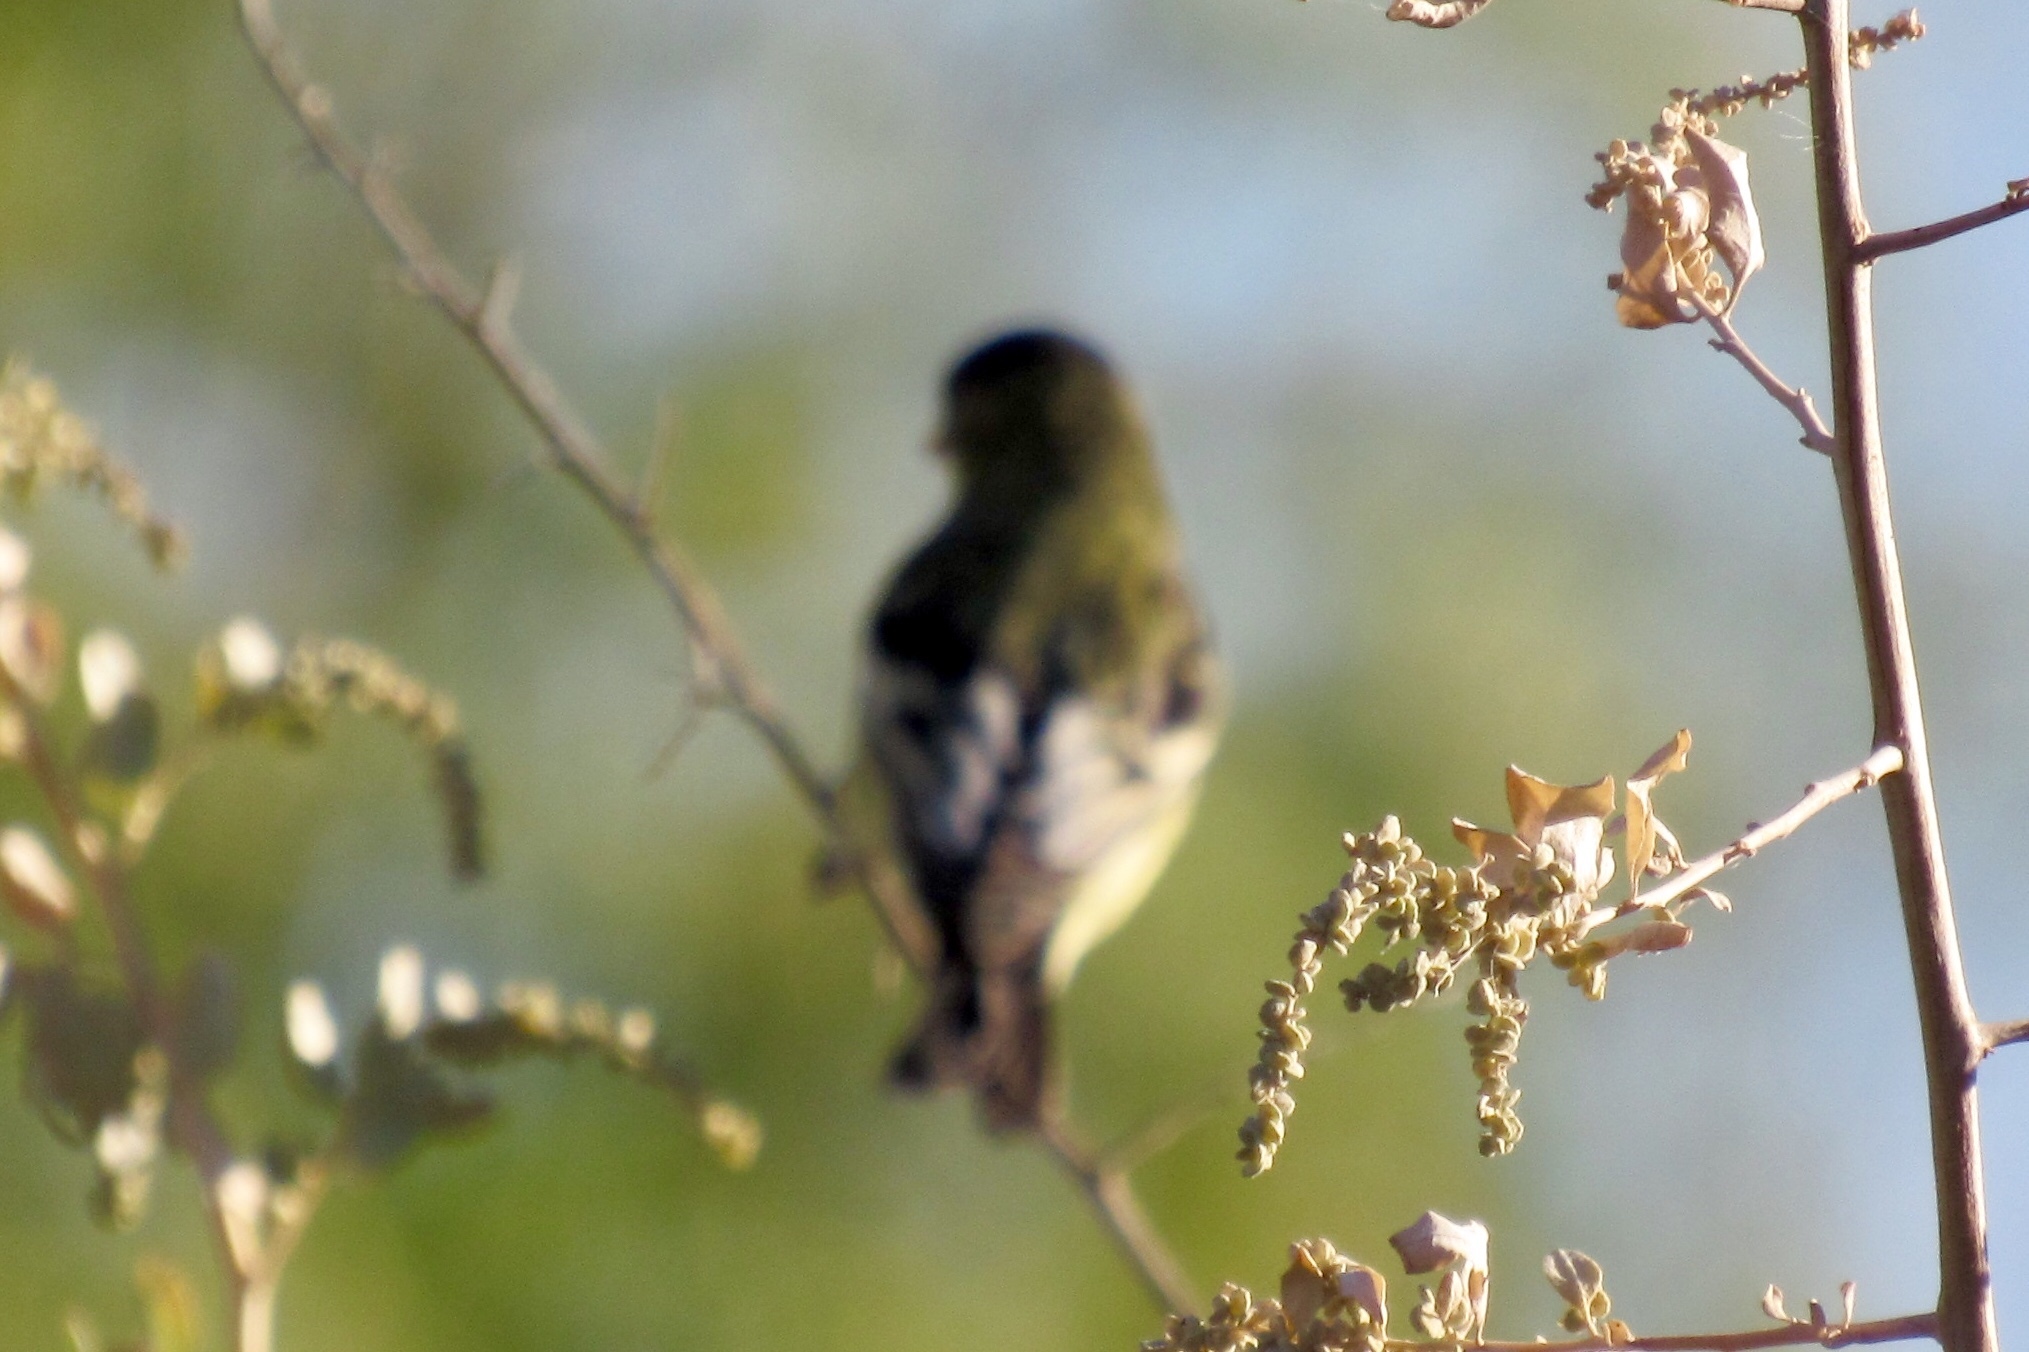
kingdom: Animalia
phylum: Chordata
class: Aves
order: Passeriformes
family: Fringillidae
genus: Spinus
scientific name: Spinus psaltria
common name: Lesser goldfinch
